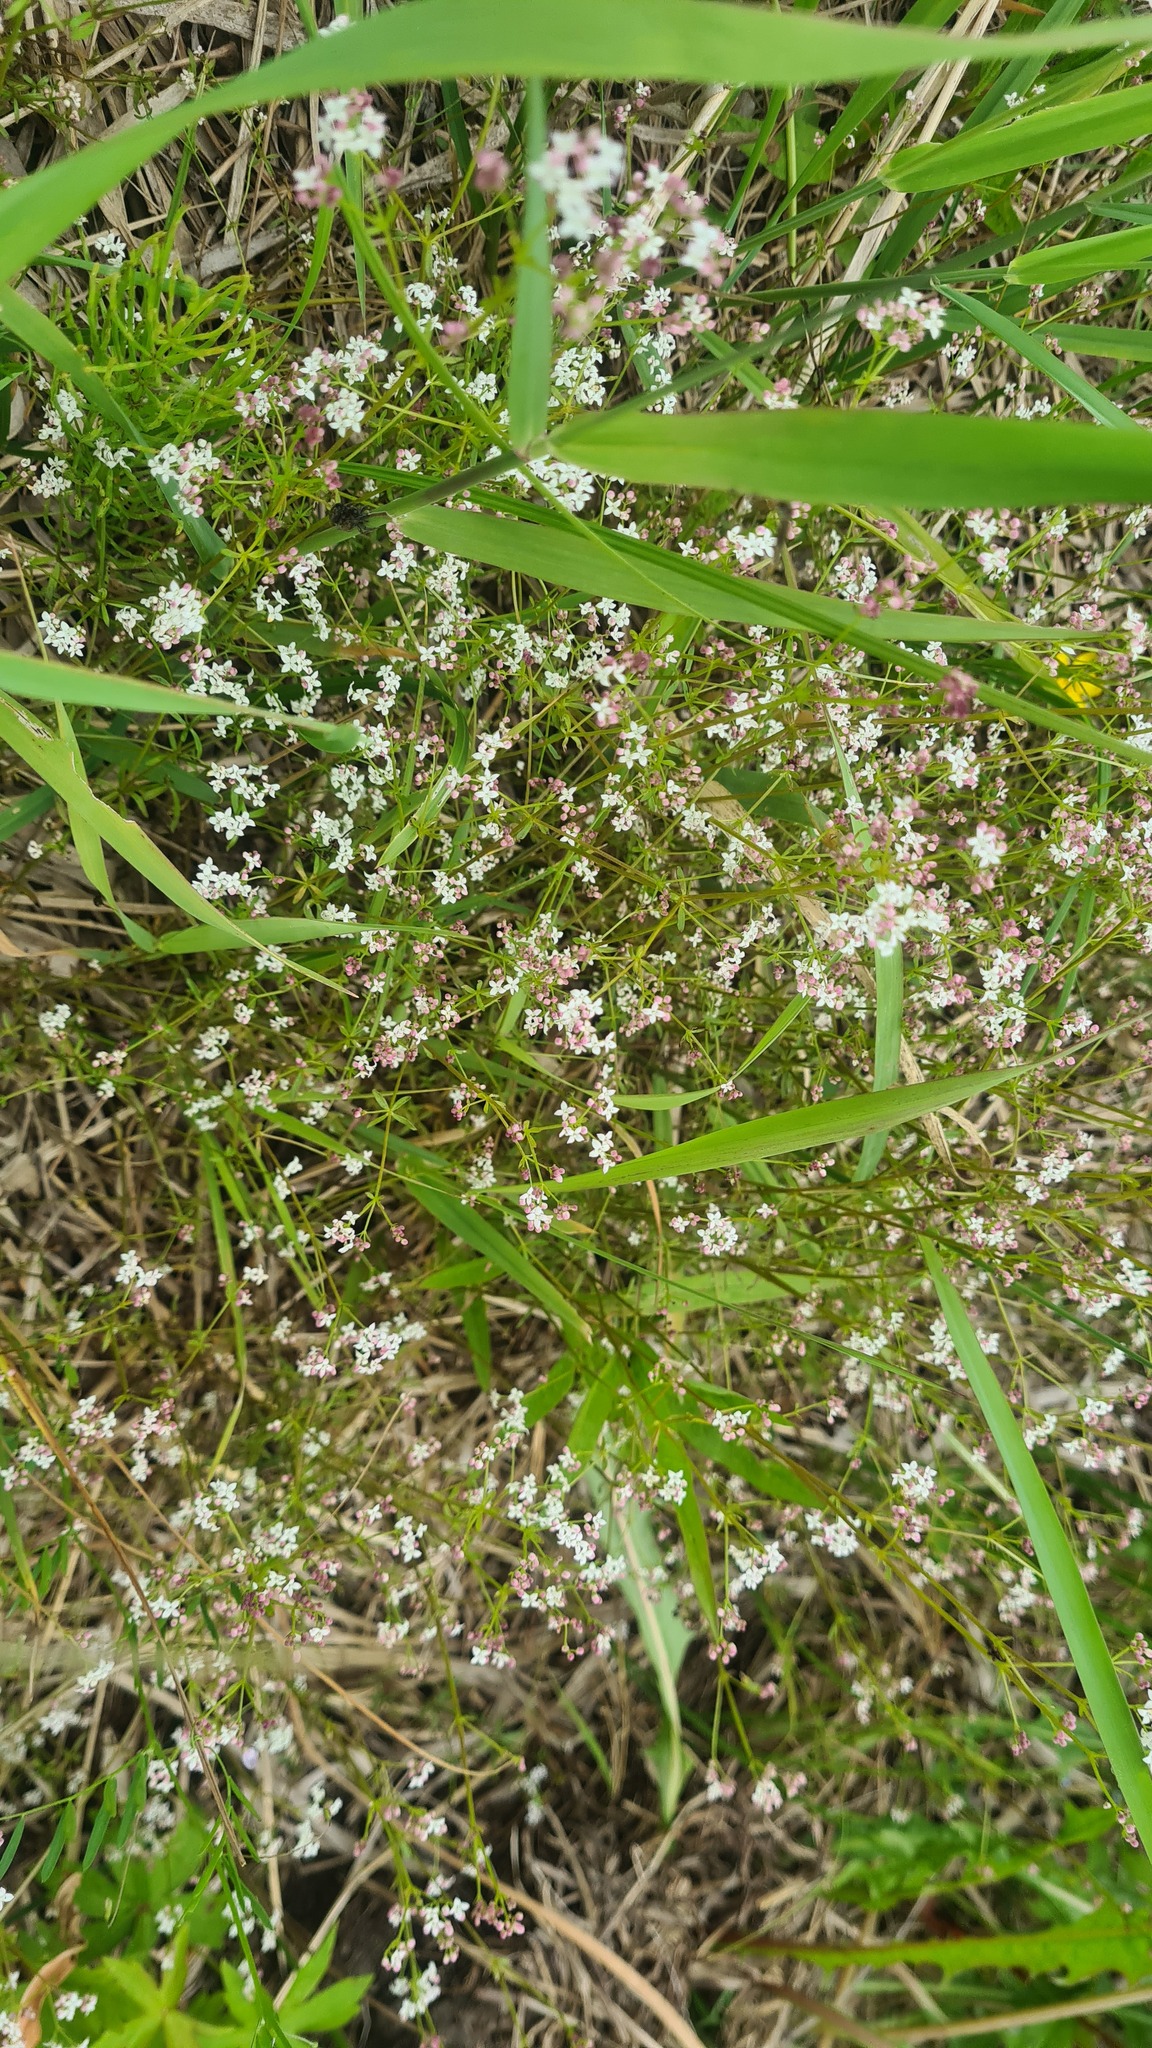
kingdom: Plantae
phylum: Tracheophyta
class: Magnoliopsida
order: Gentianales
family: Rubiaceae
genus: Galium
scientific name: Galium palustre
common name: Common marsh-bedstraw
